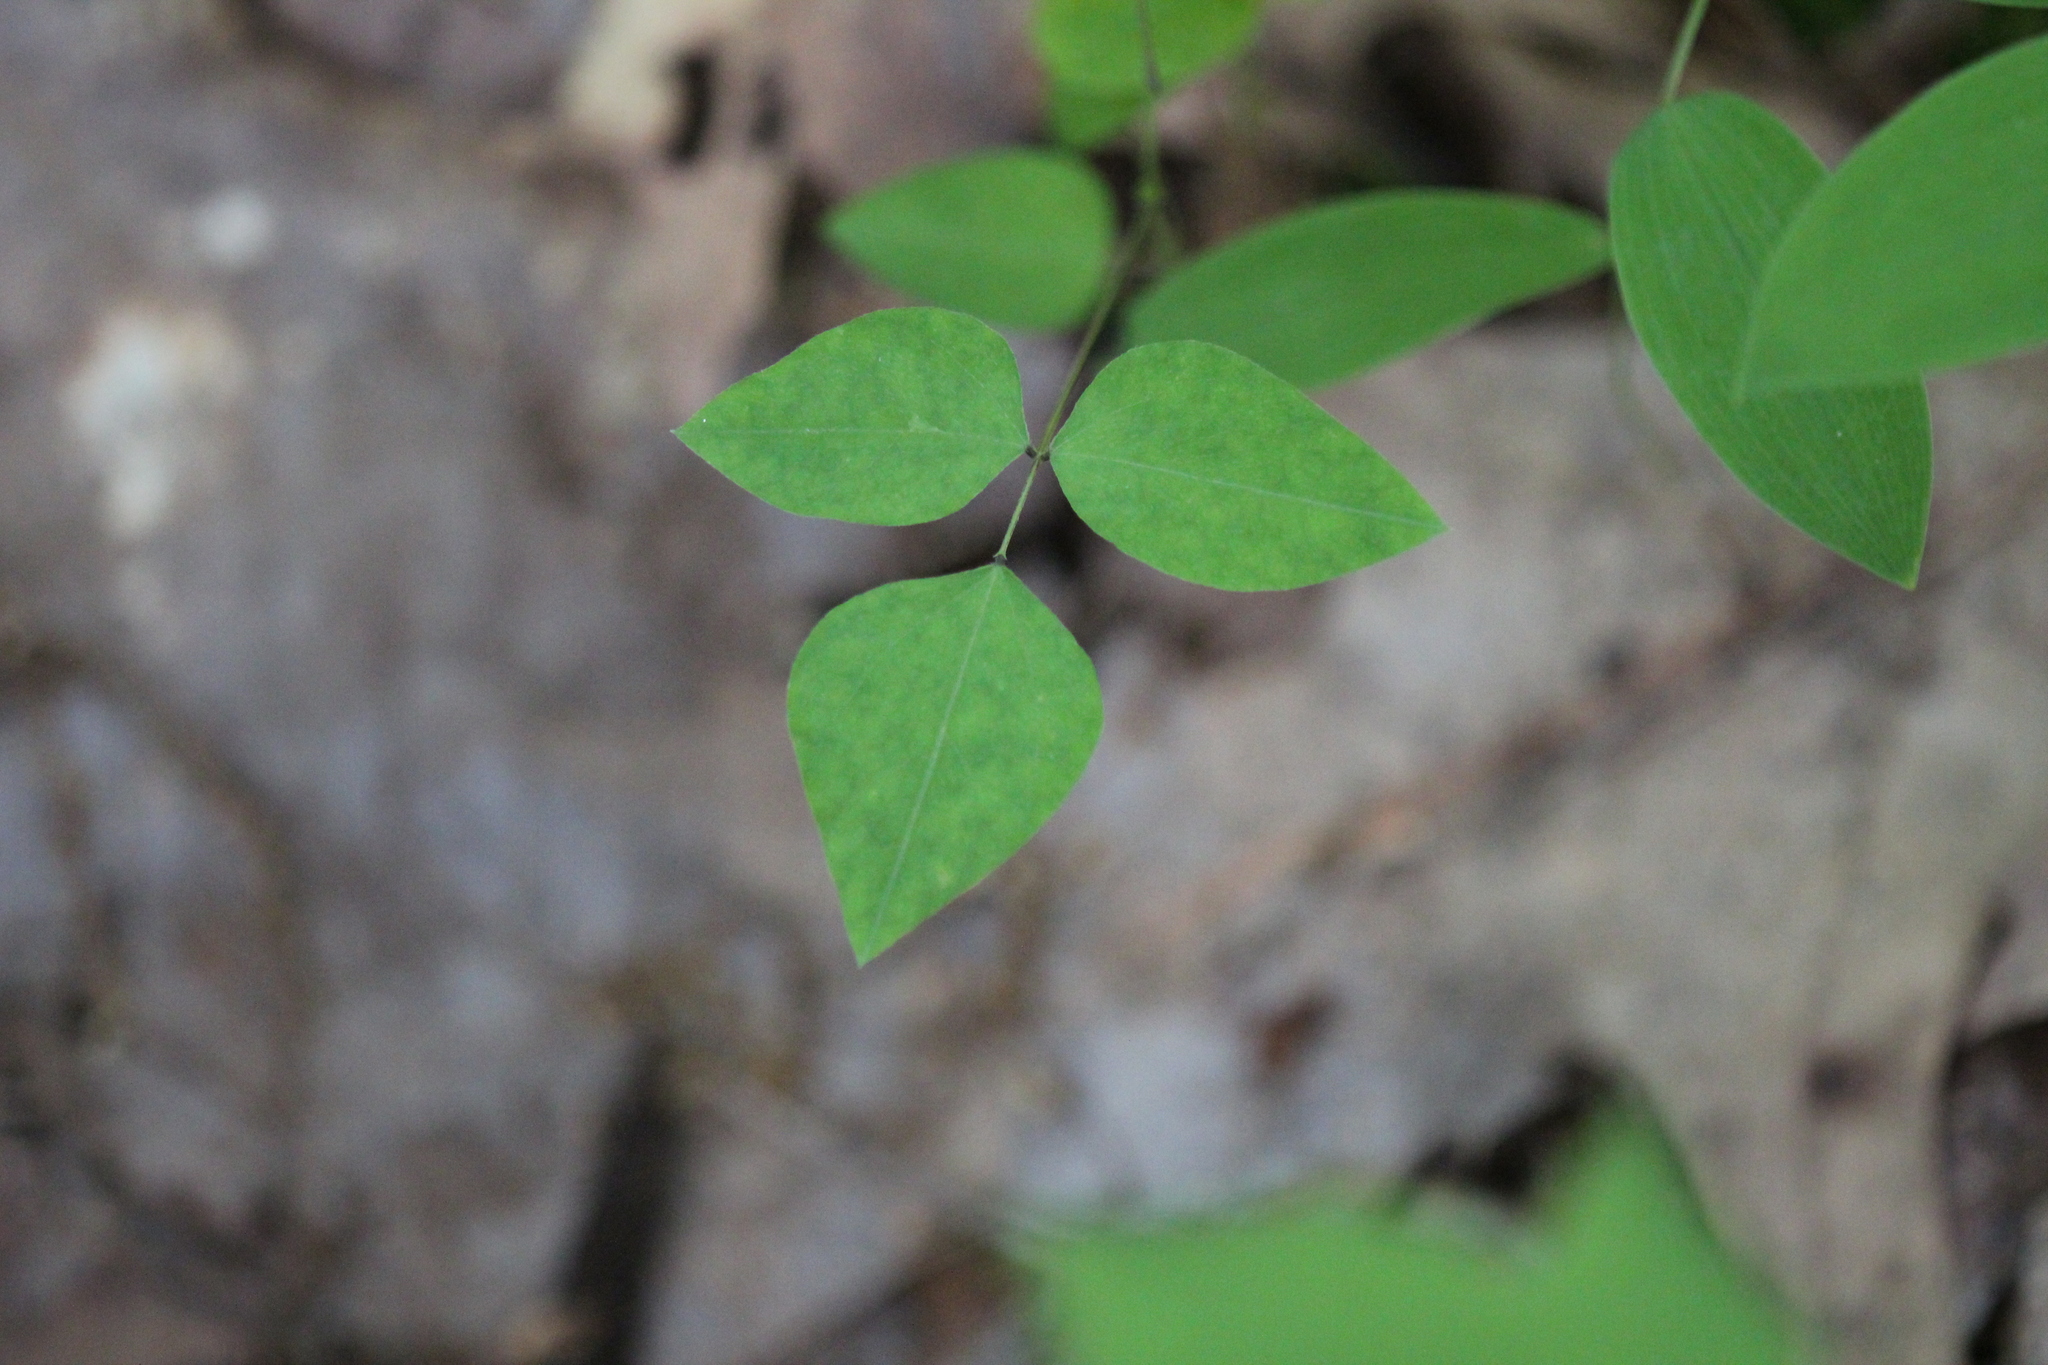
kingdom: Plantae
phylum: Tracheophyta
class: Magnoliopsida
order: Fabales
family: Fabaceae
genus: Amphicarpaea
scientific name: Amphicarpaea bracteata
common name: American hog peanut
